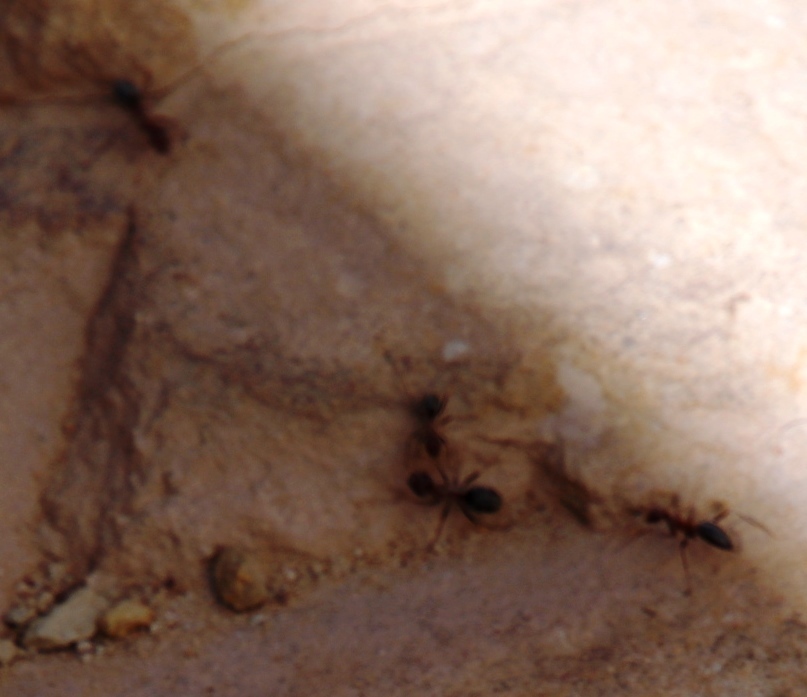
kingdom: Animalia
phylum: Arthropoda
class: Insecta
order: Hymenoptera
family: Formicidae
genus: Anoplolepis
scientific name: Anoplolepis custodiens
